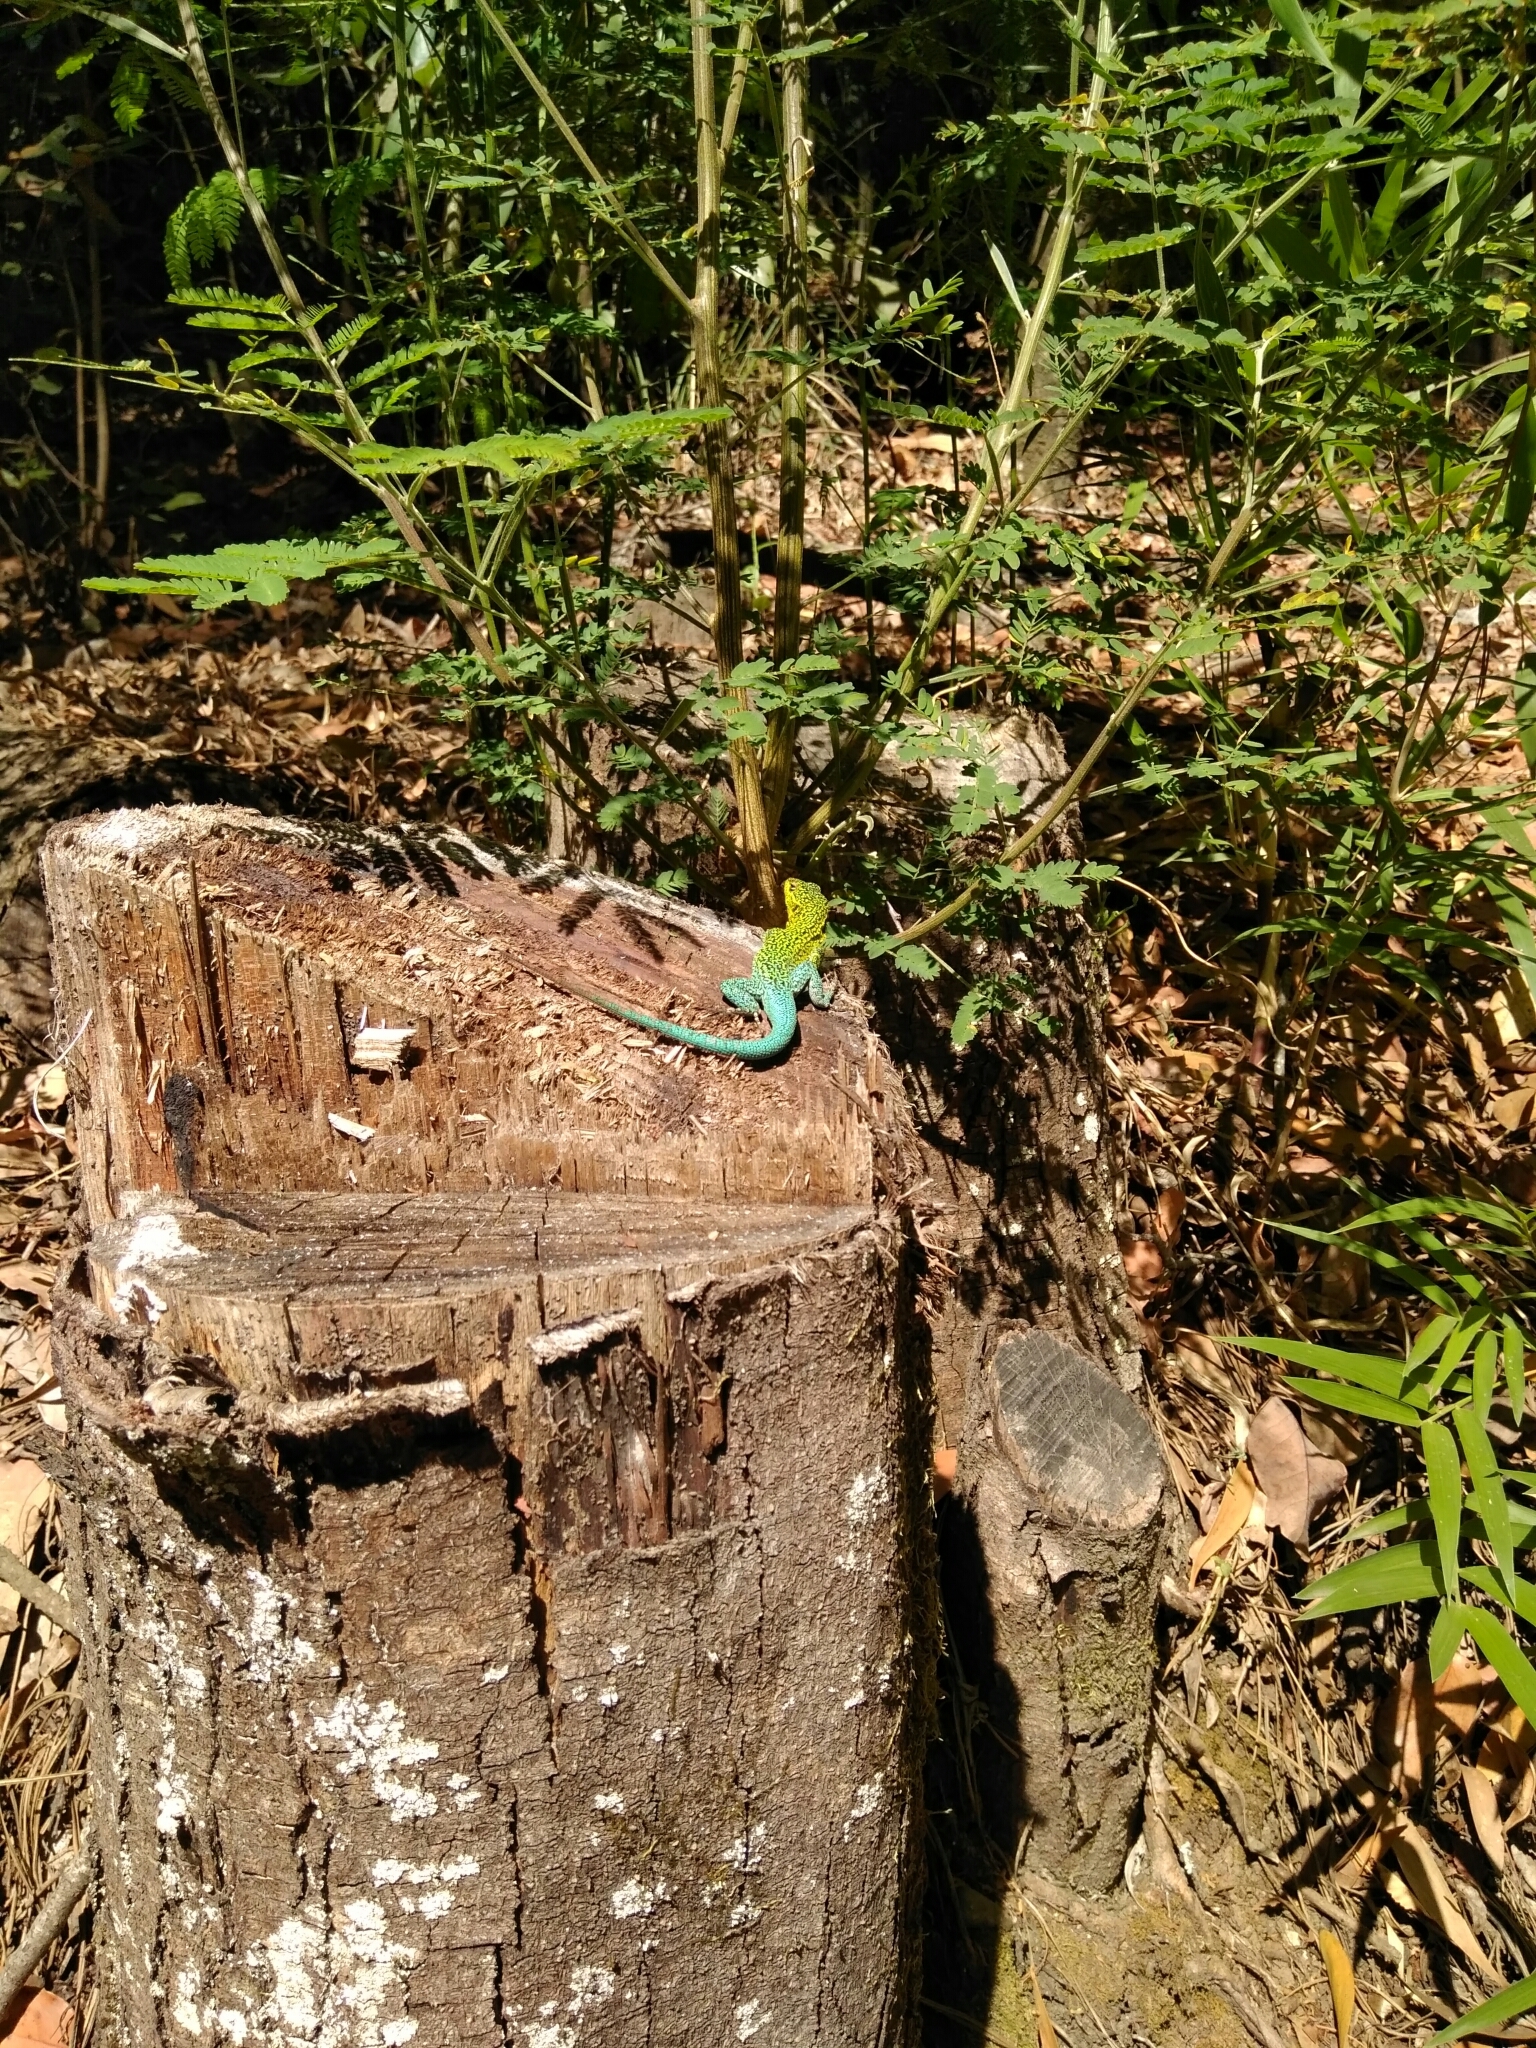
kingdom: Animalia
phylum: Chordata
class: Squamata
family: Liolaemidae
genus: Liolaemus
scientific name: Liolaemus tenuis
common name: Thin tree iguana
